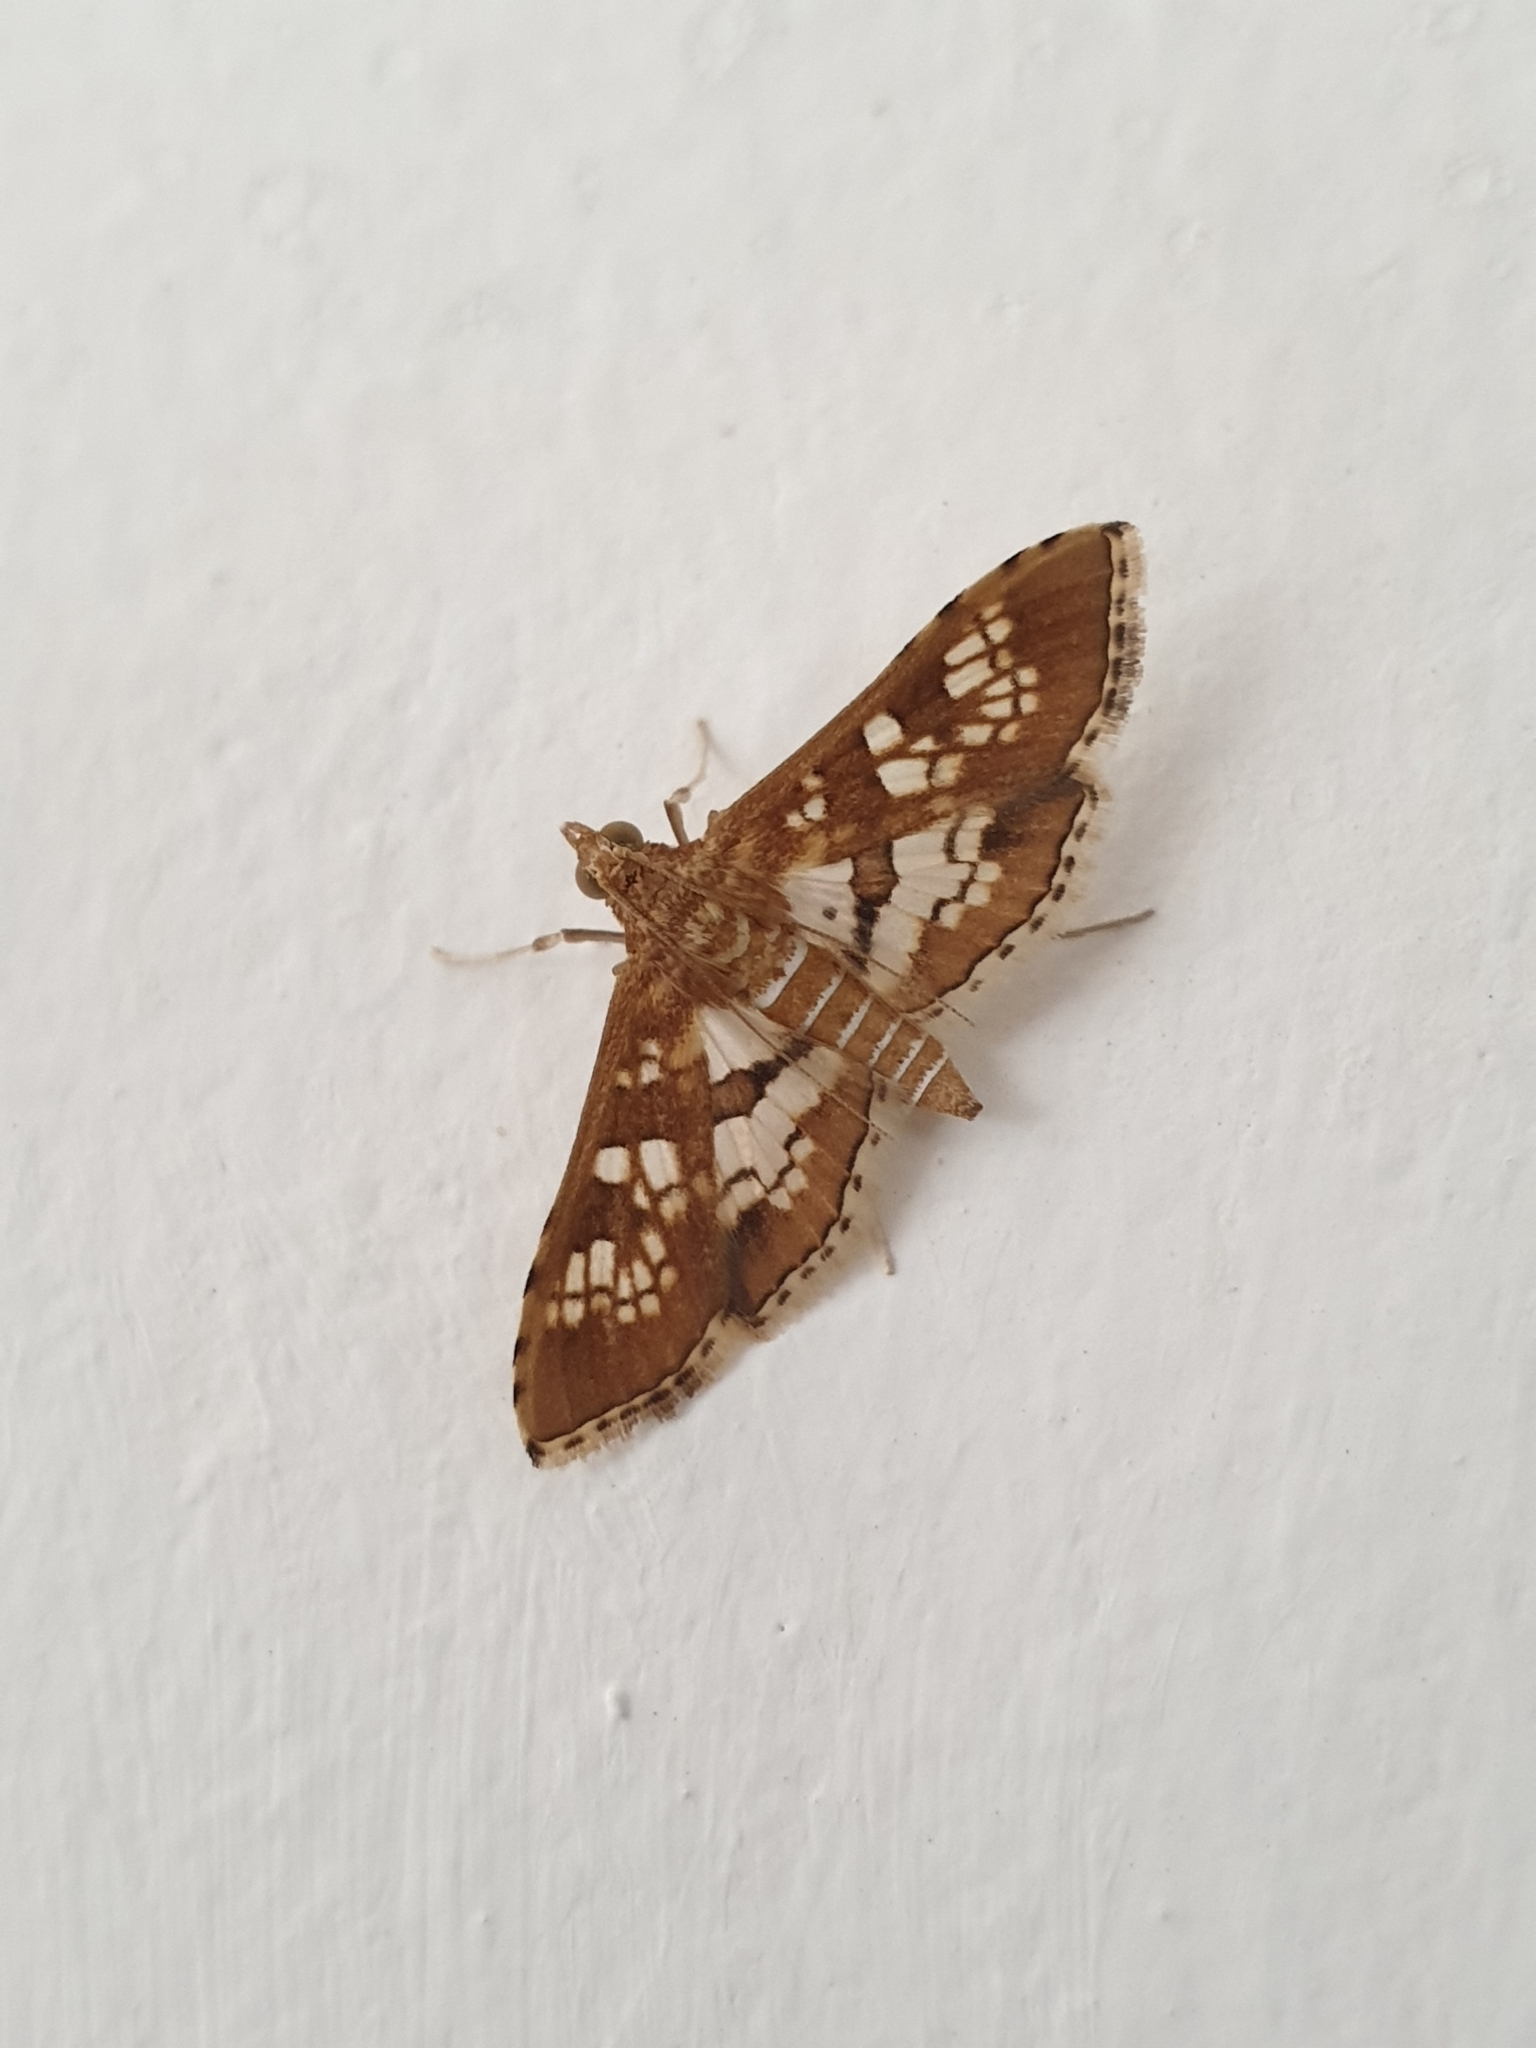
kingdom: Animalia
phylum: Arthropoda
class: Insecta
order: Lepidoptera
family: Crambidae
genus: Sameodes
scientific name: Sameodes cancellalis
